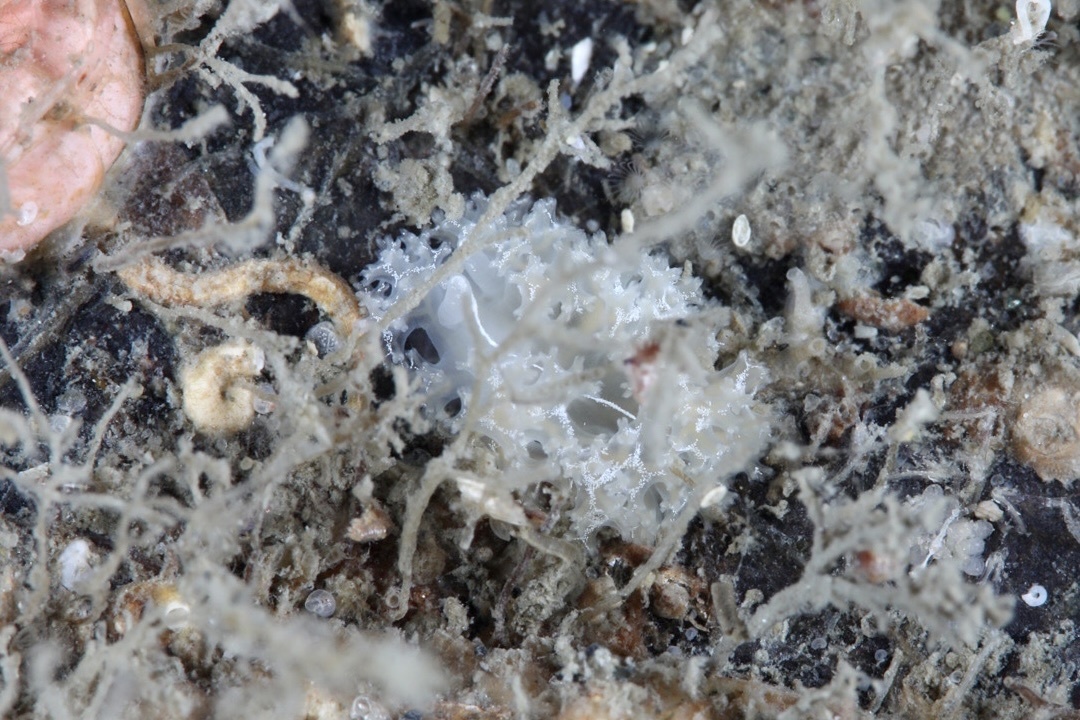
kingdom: Animalia
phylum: Mollusca
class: Gastropoda
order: Nudibranchia
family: Heroidae
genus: Hero
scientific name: Hero formosa
